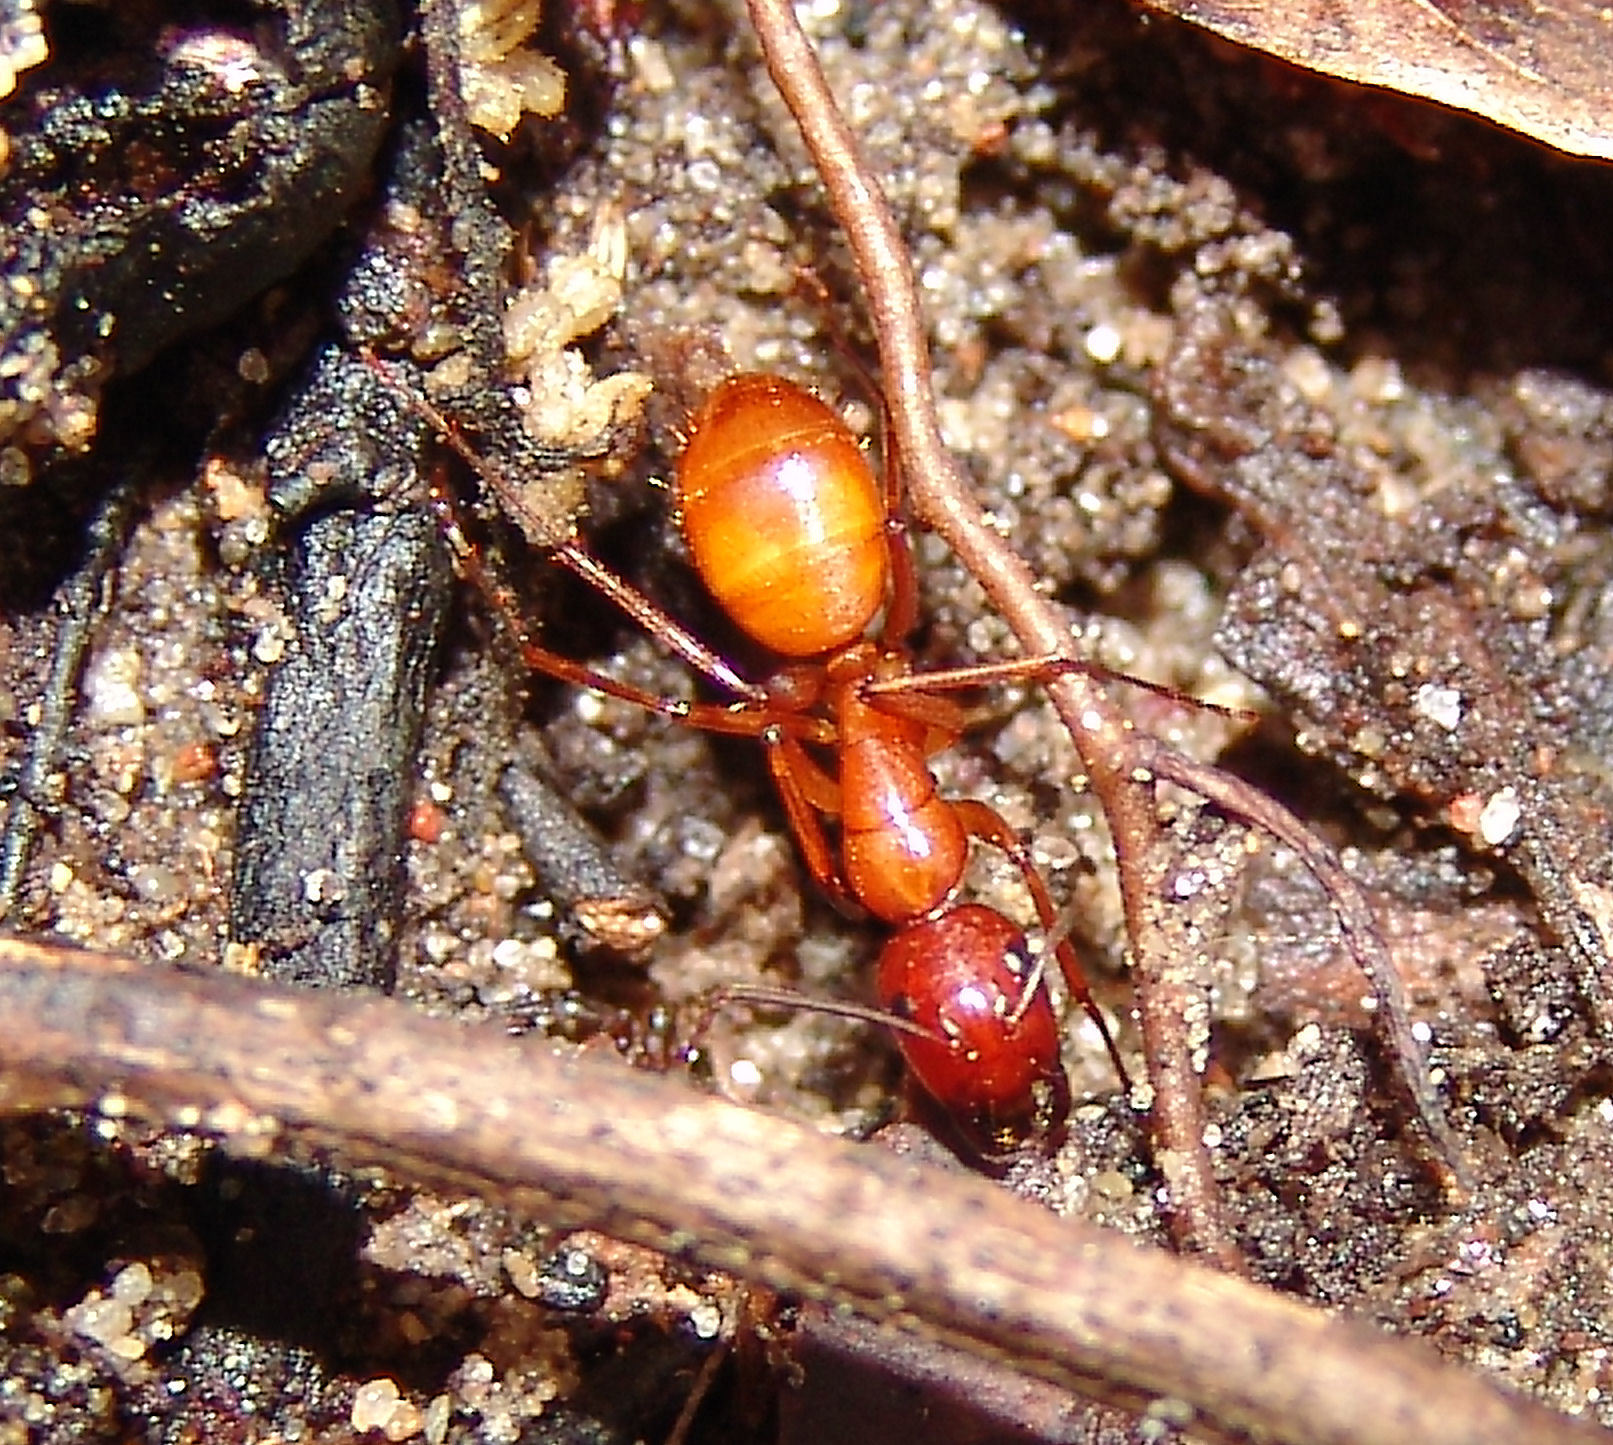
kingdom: Animalia
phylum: Arthropoda
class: Insecta
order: Hymenoptera
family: Formicidae
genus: Camponotus
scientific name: Camponotus castaneus
